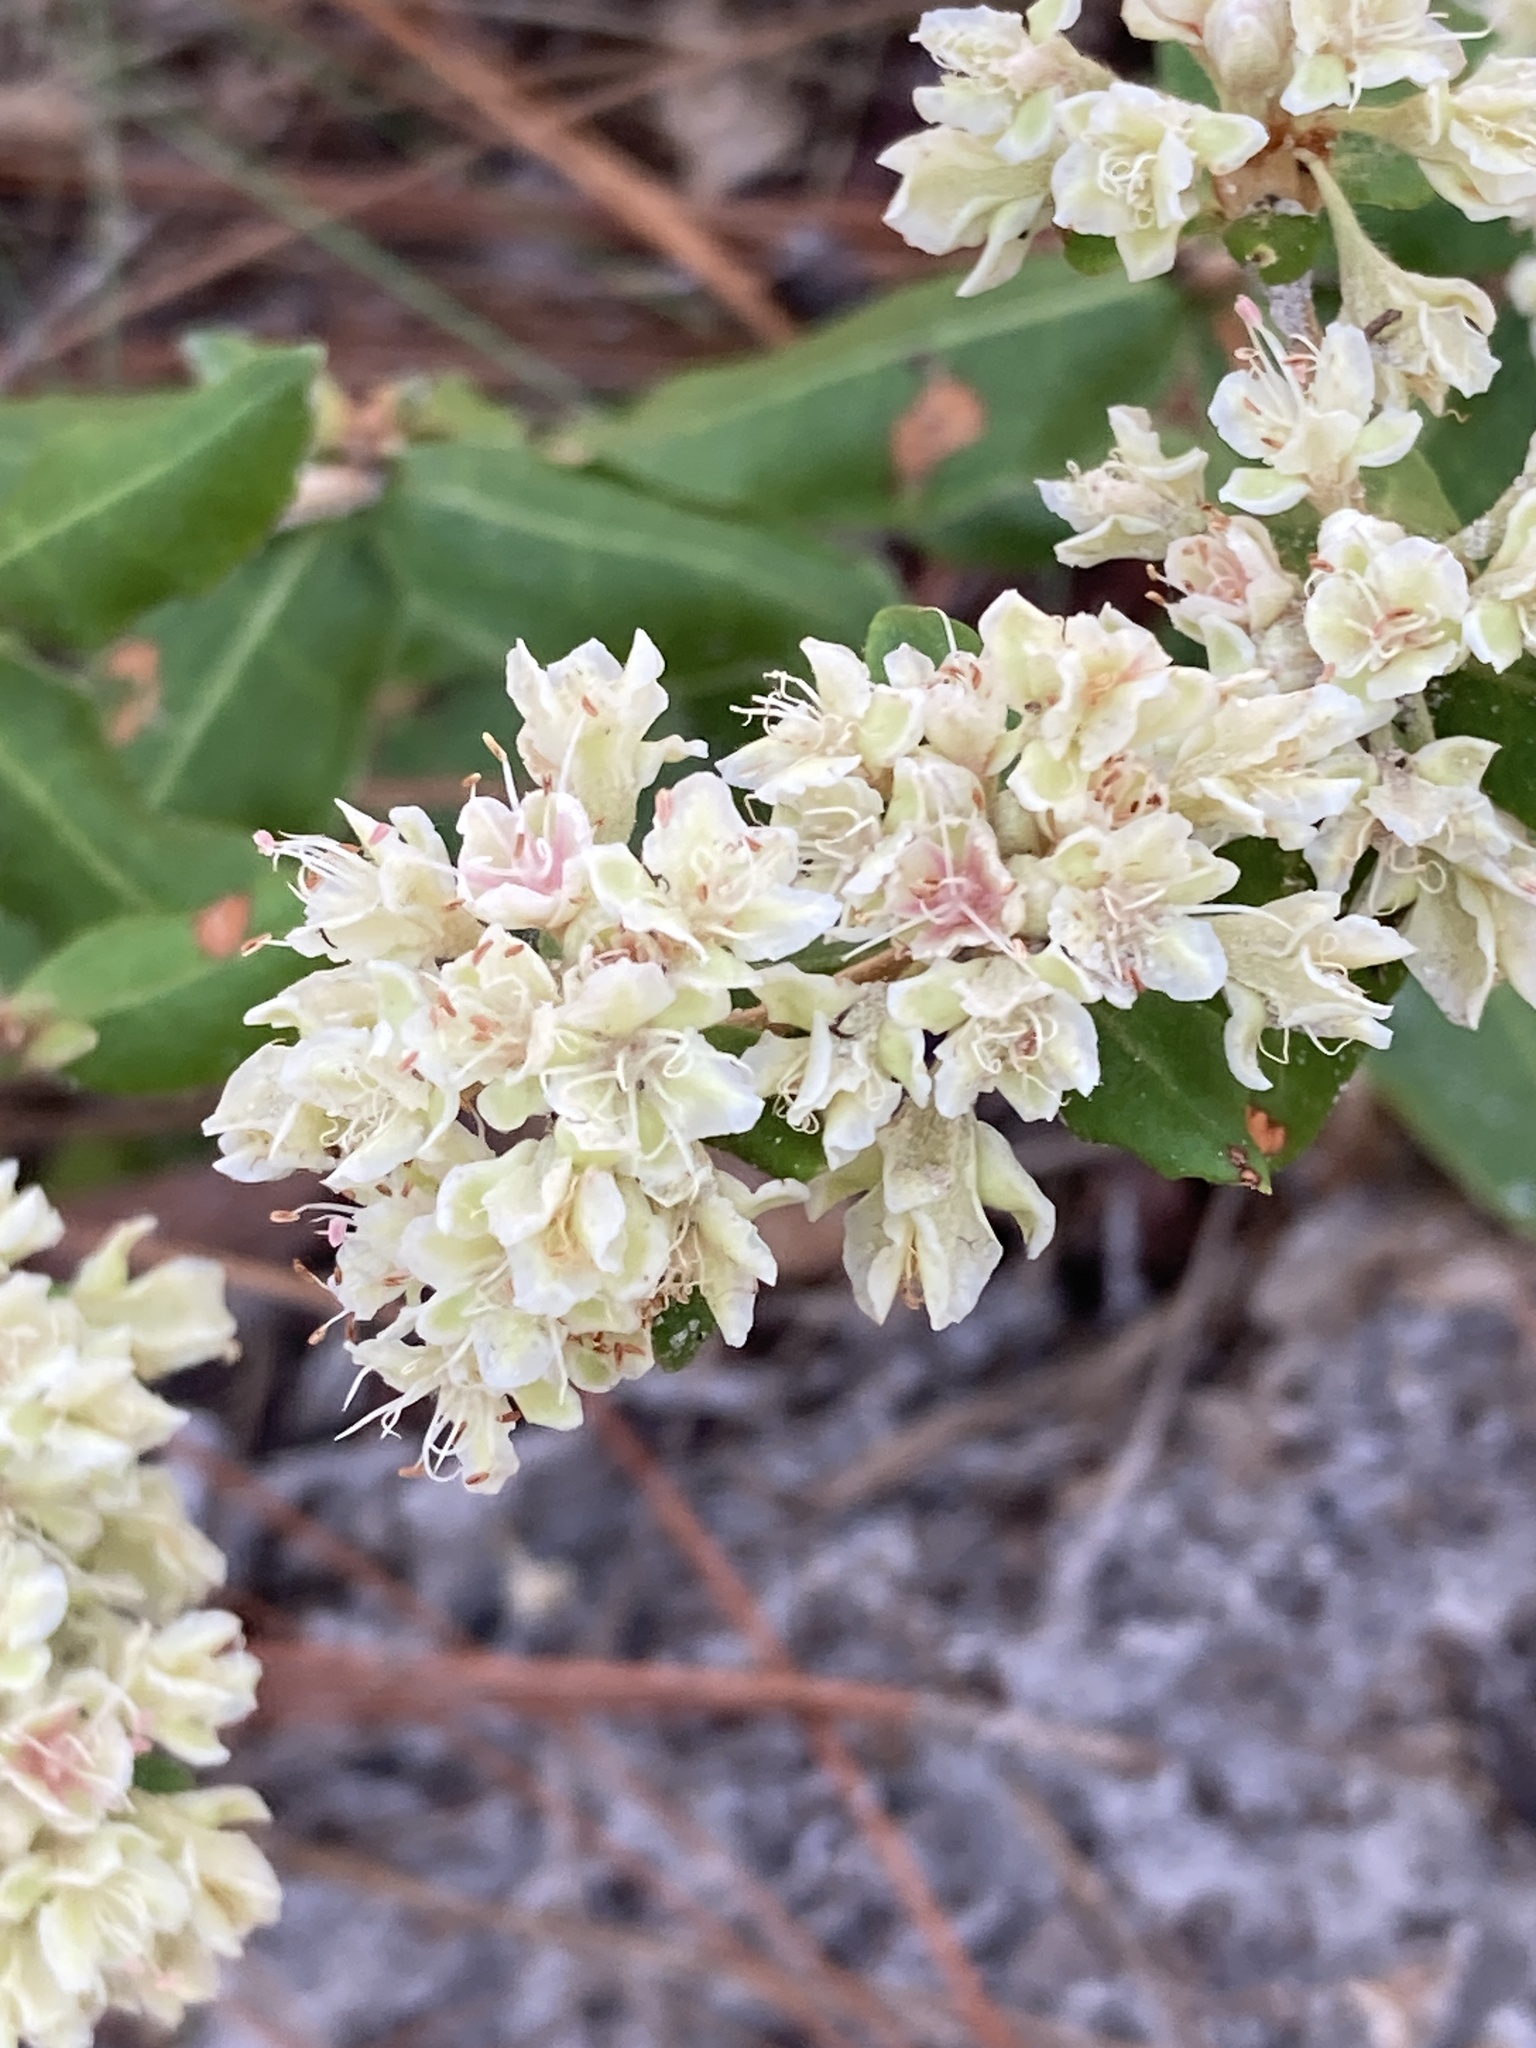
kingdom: Plantae
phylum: Tracheophyta
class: Magnoliopsida
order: Caryophyllales
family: Polygonaceae
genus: Eriogonum
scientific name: Eriogonum tomentosum
